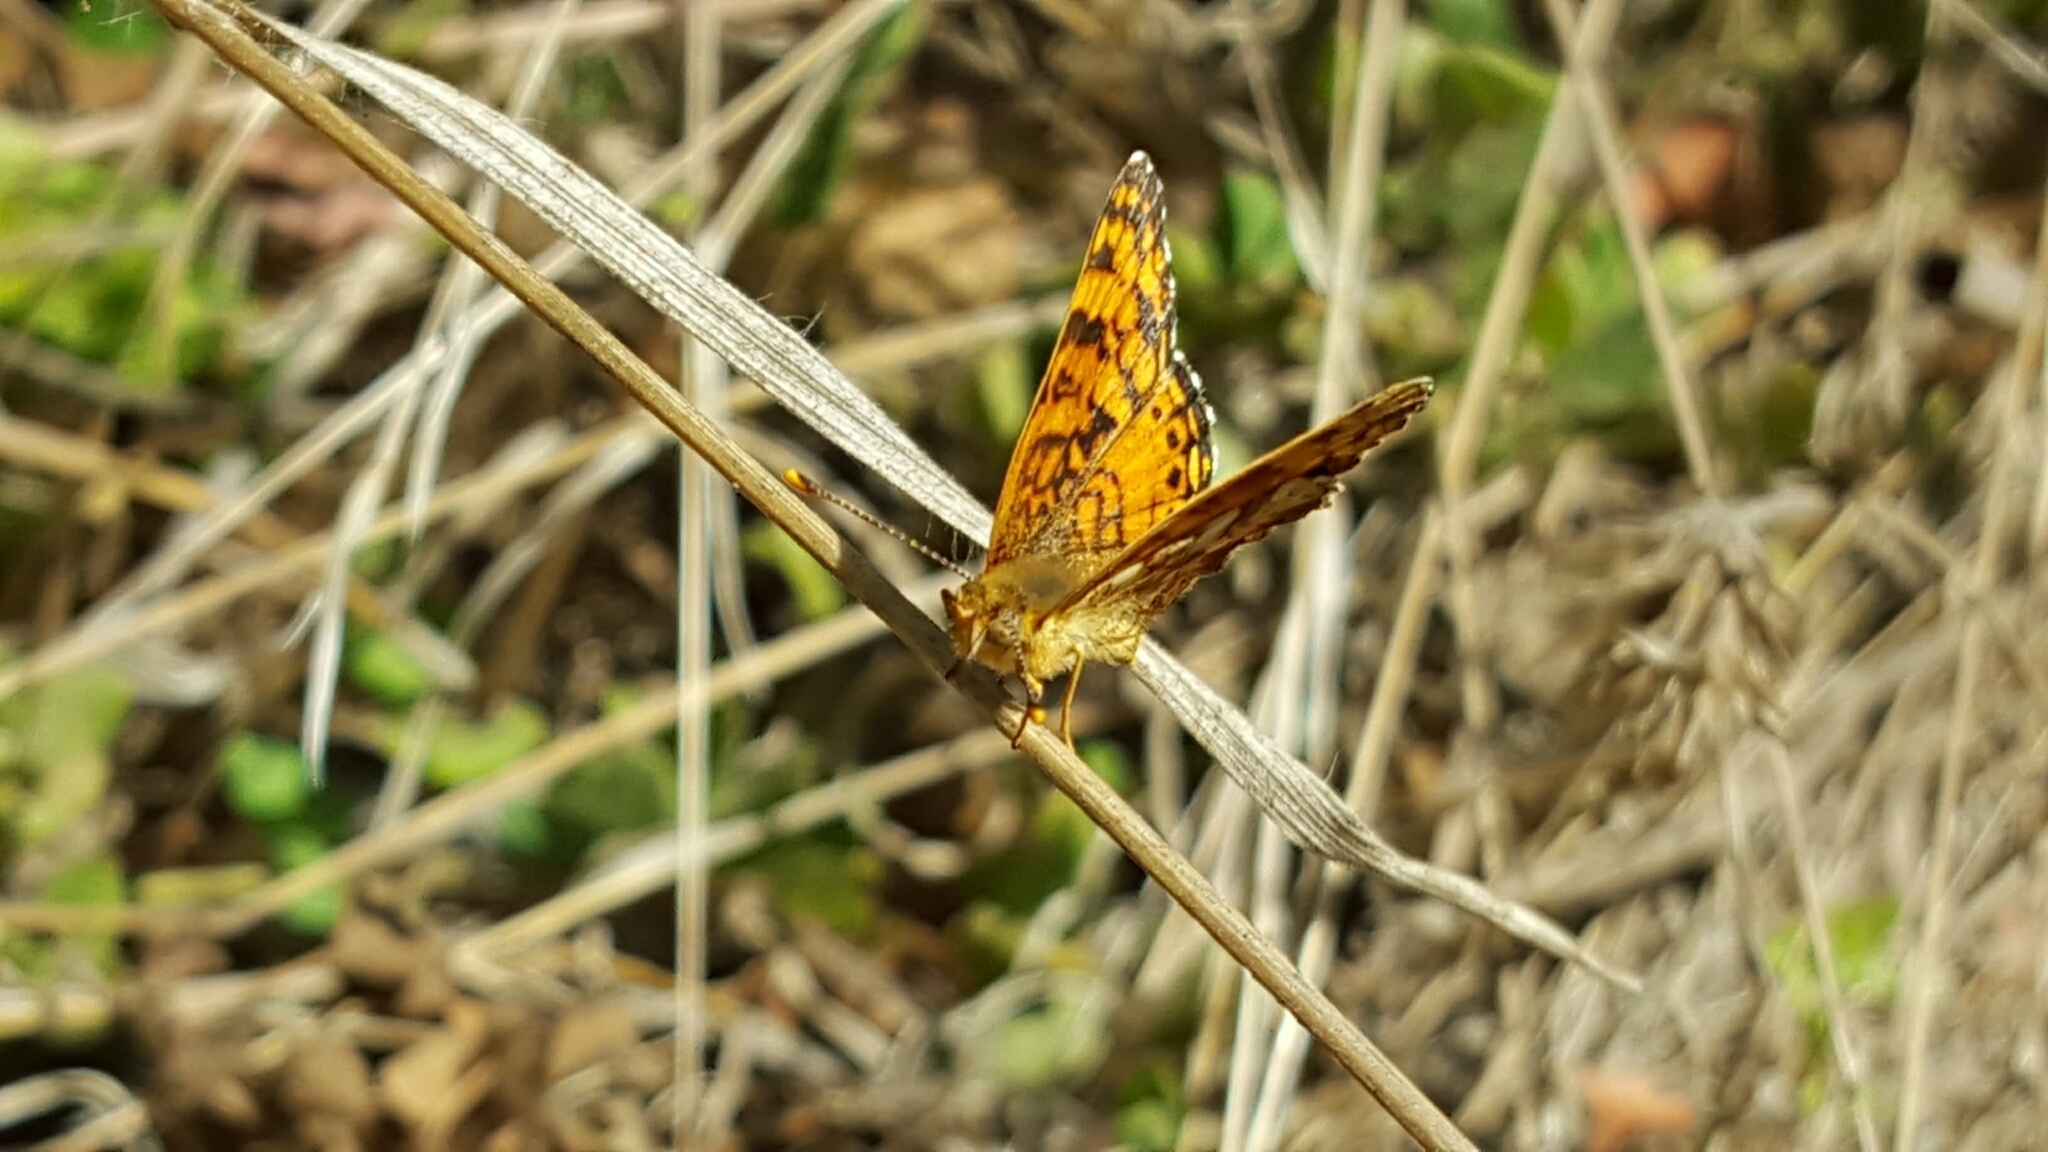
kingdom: Animalia
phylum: Arthropoda
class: Insecta
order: Lepidoptera
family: Nymphalidae
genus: Eresia
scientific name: Eresia aveyrona
